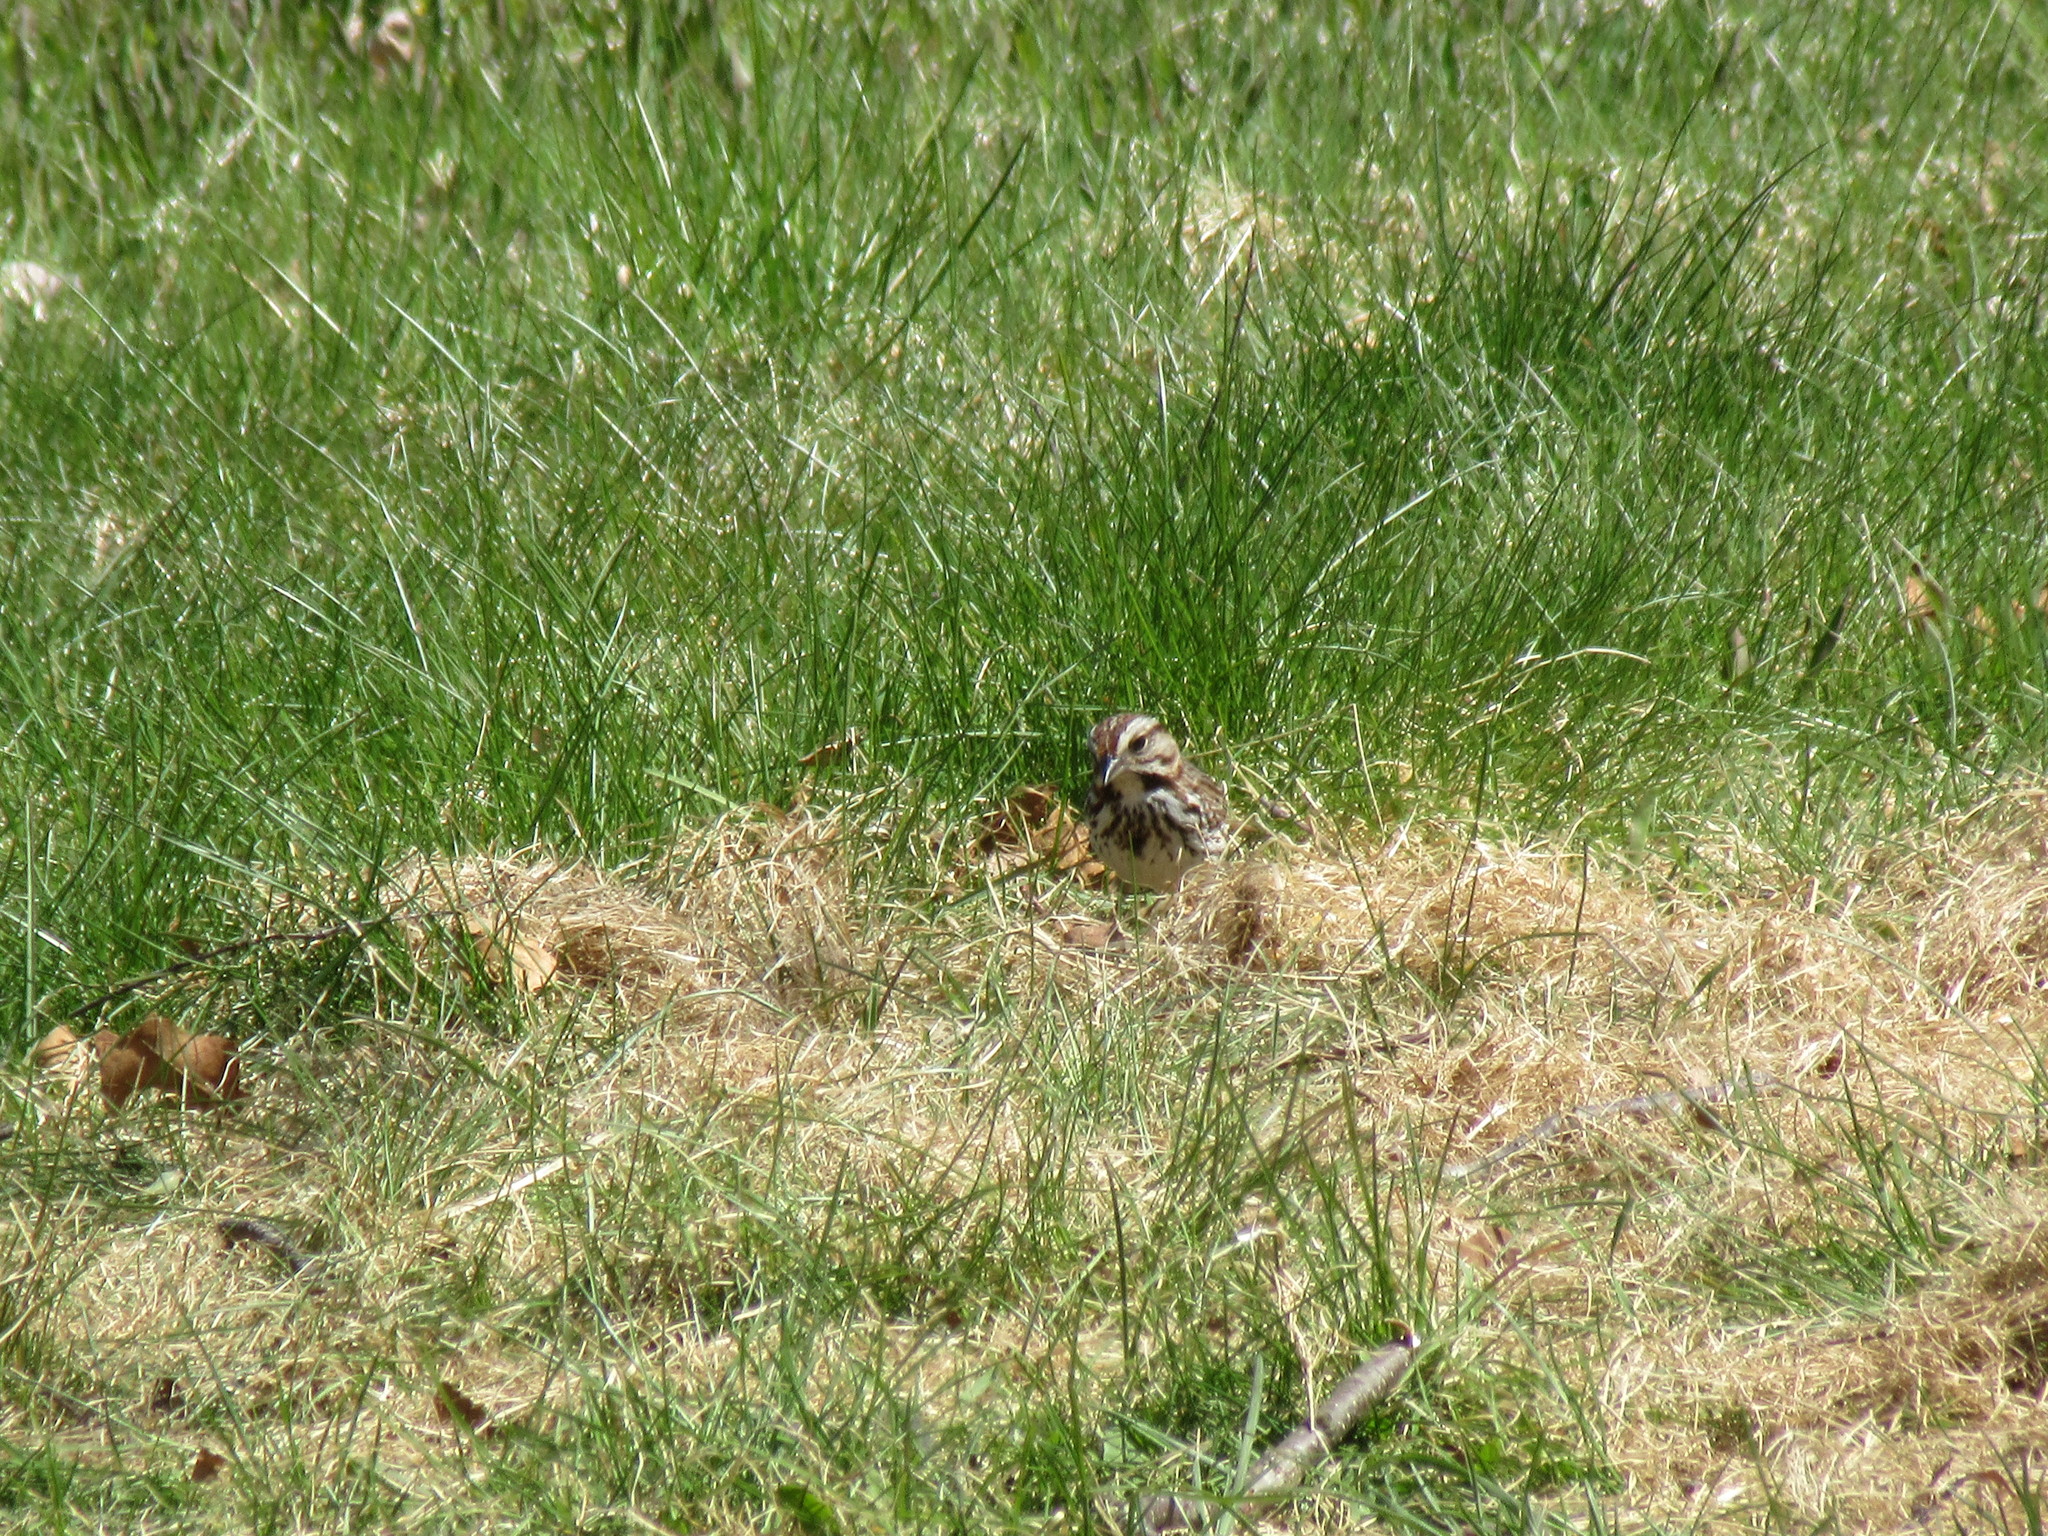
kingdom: Animalia
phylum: Chordata
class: Aves
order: Passeriformes
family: Passerellidae
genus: Melospiza
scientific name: Melospiza melodia
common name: Song sparrow
